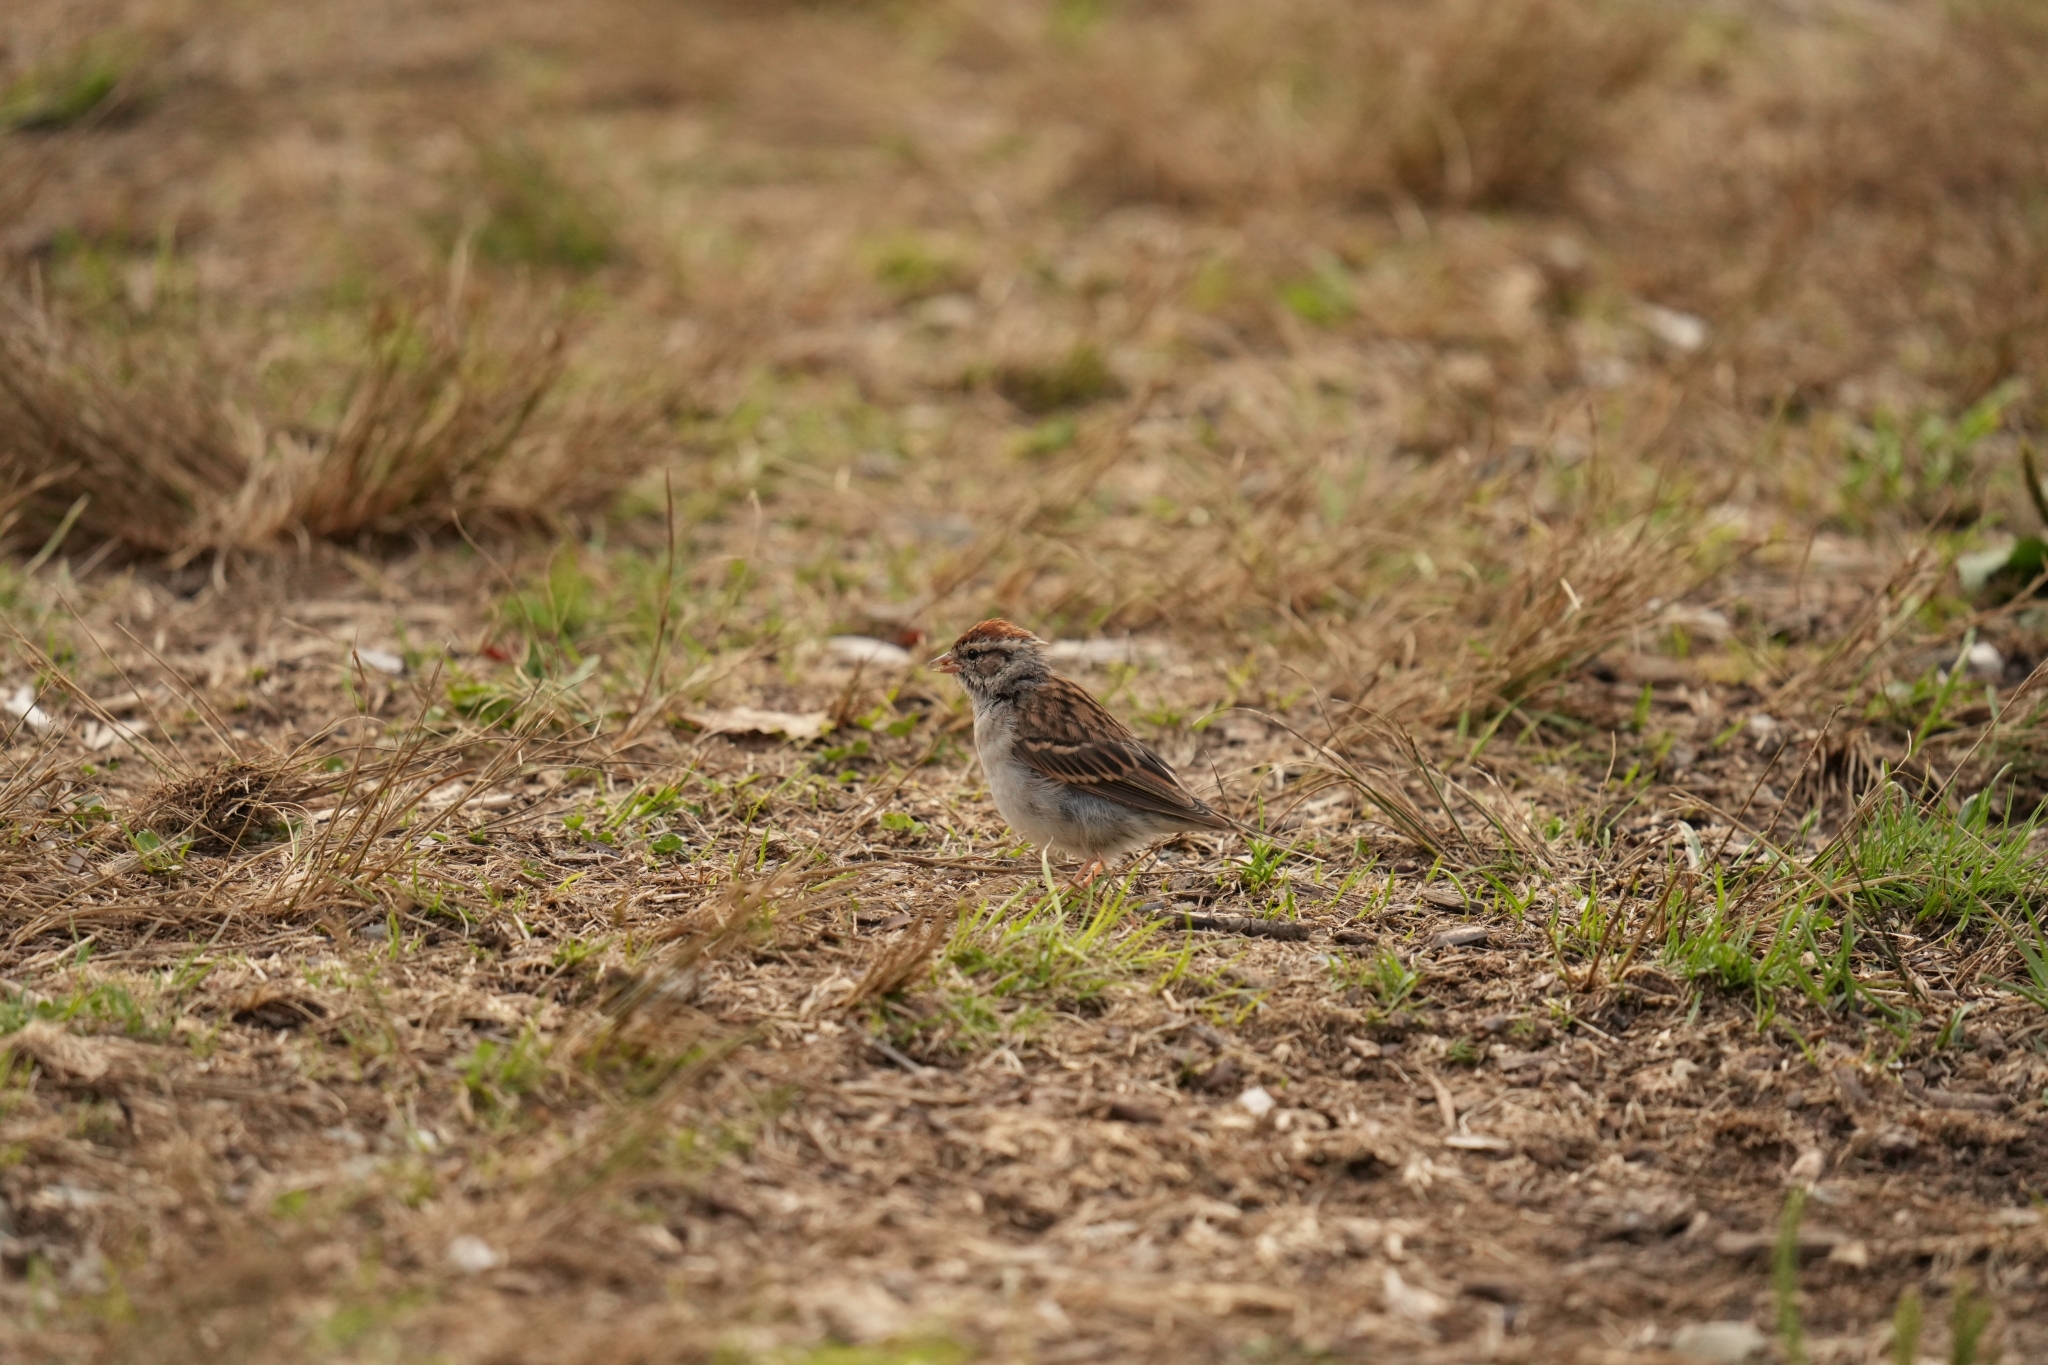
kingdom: Animalia
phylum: Chordata
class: Aves
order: Passeriformes
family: Passerellidae
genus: Spizella
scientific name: Spizella passerina
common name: Chipping sparrow
